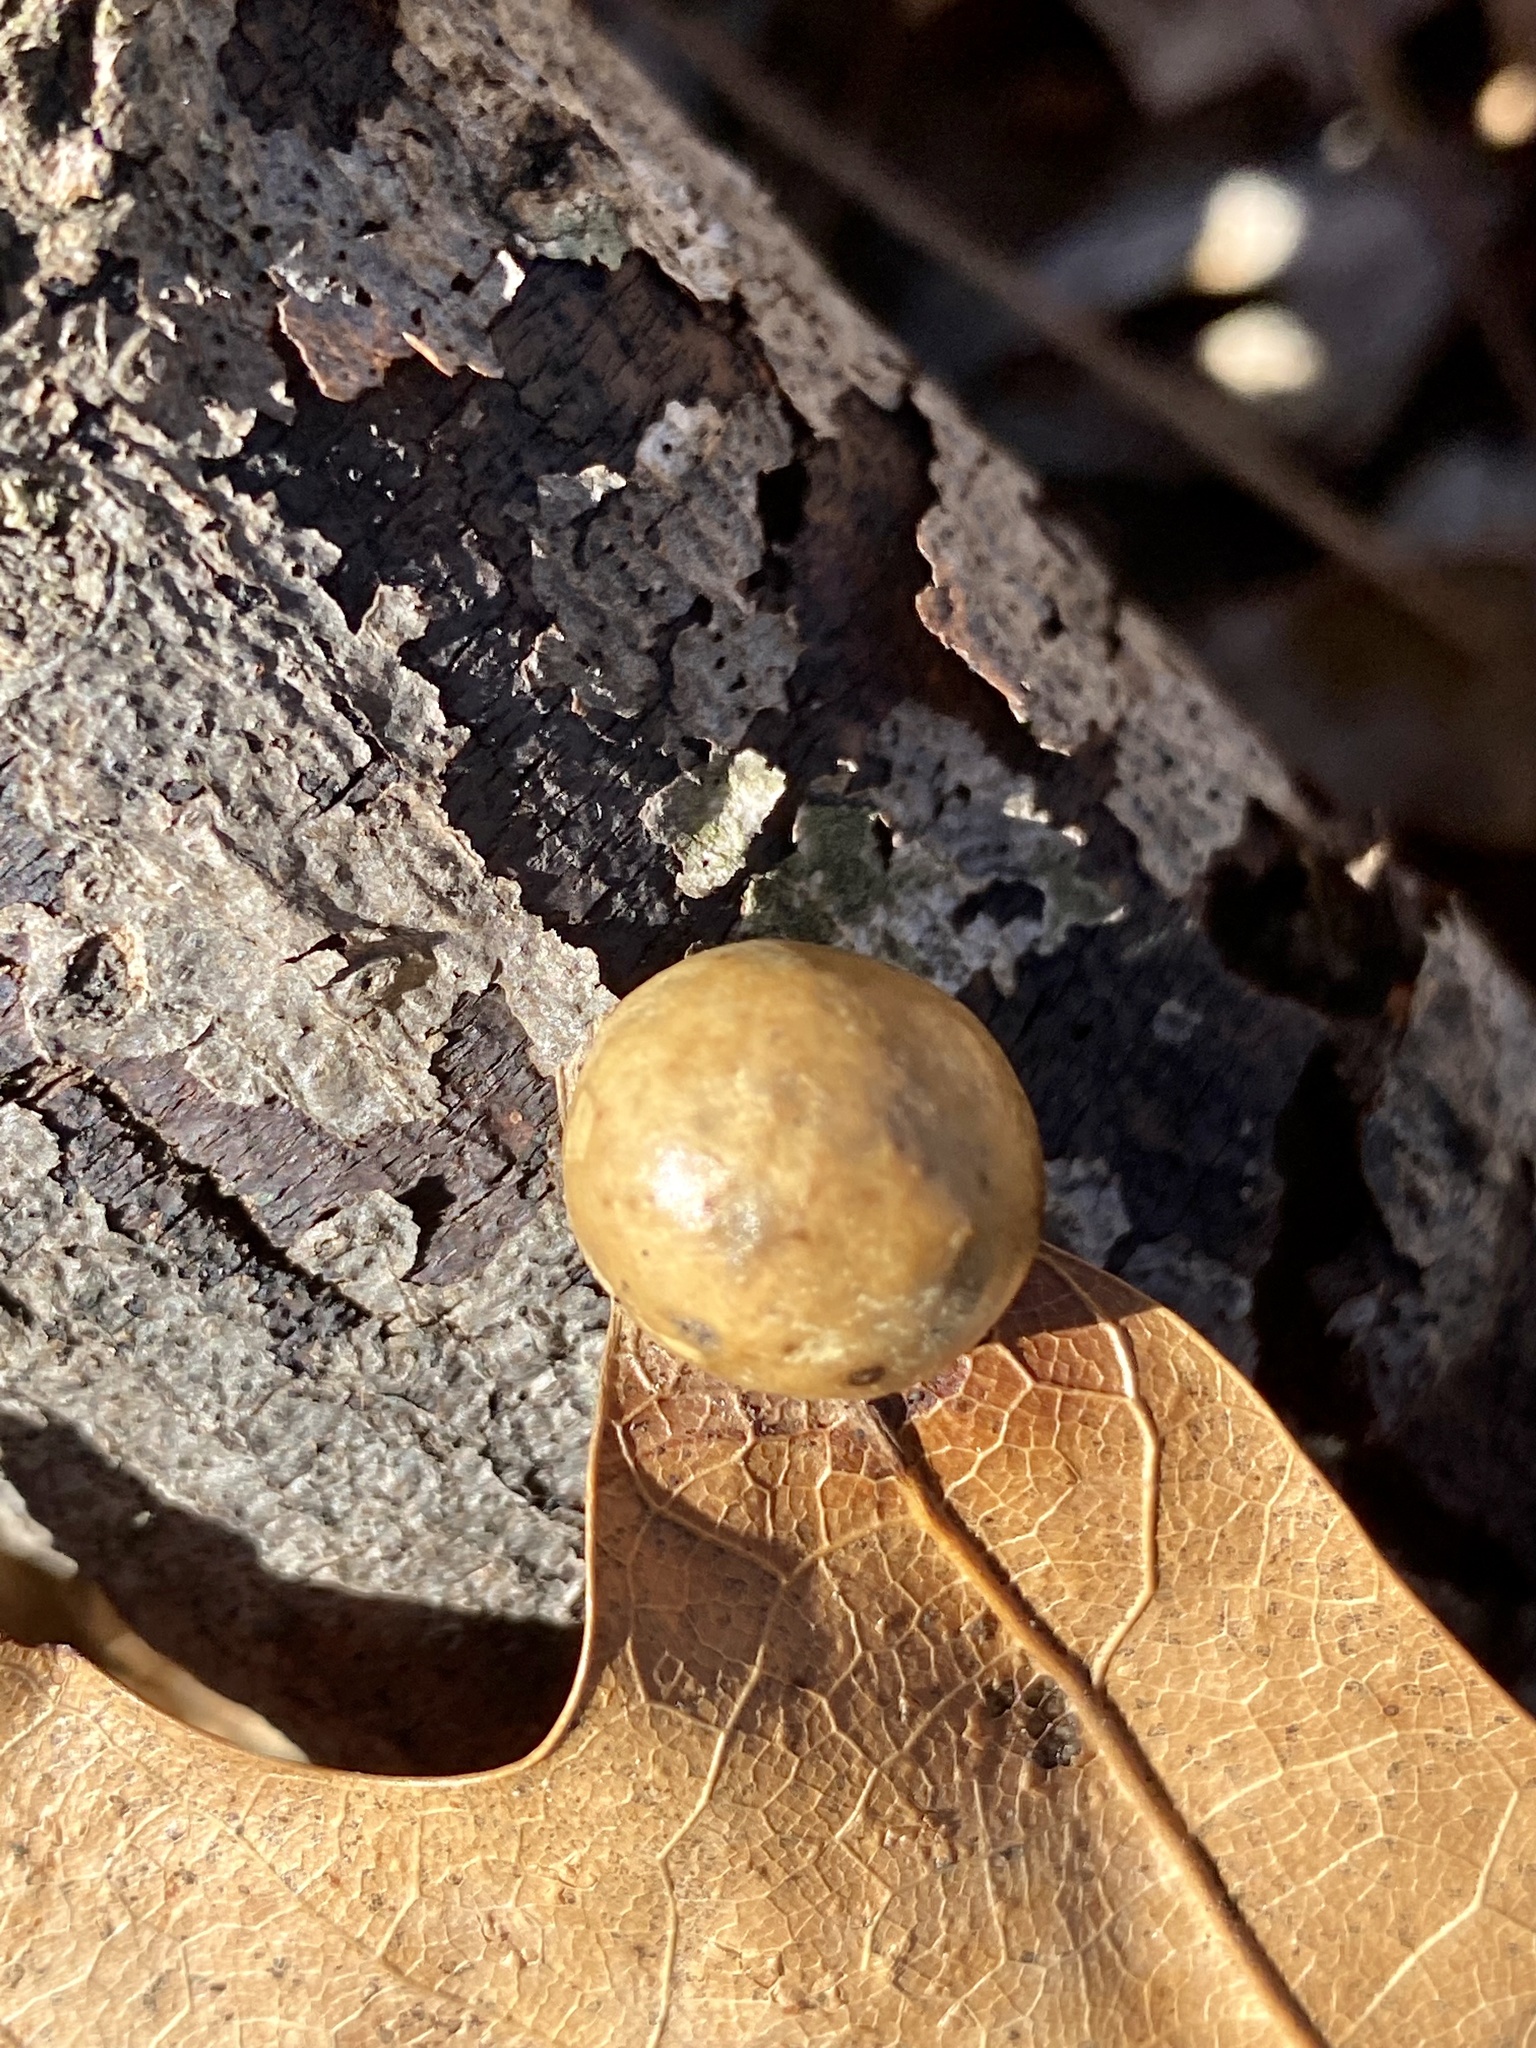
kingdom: Animalia
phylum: Arthropoda
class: Insecta
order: Hymenoptera
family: Cynipidae
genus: Amphibolips
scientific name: Amphibolips
